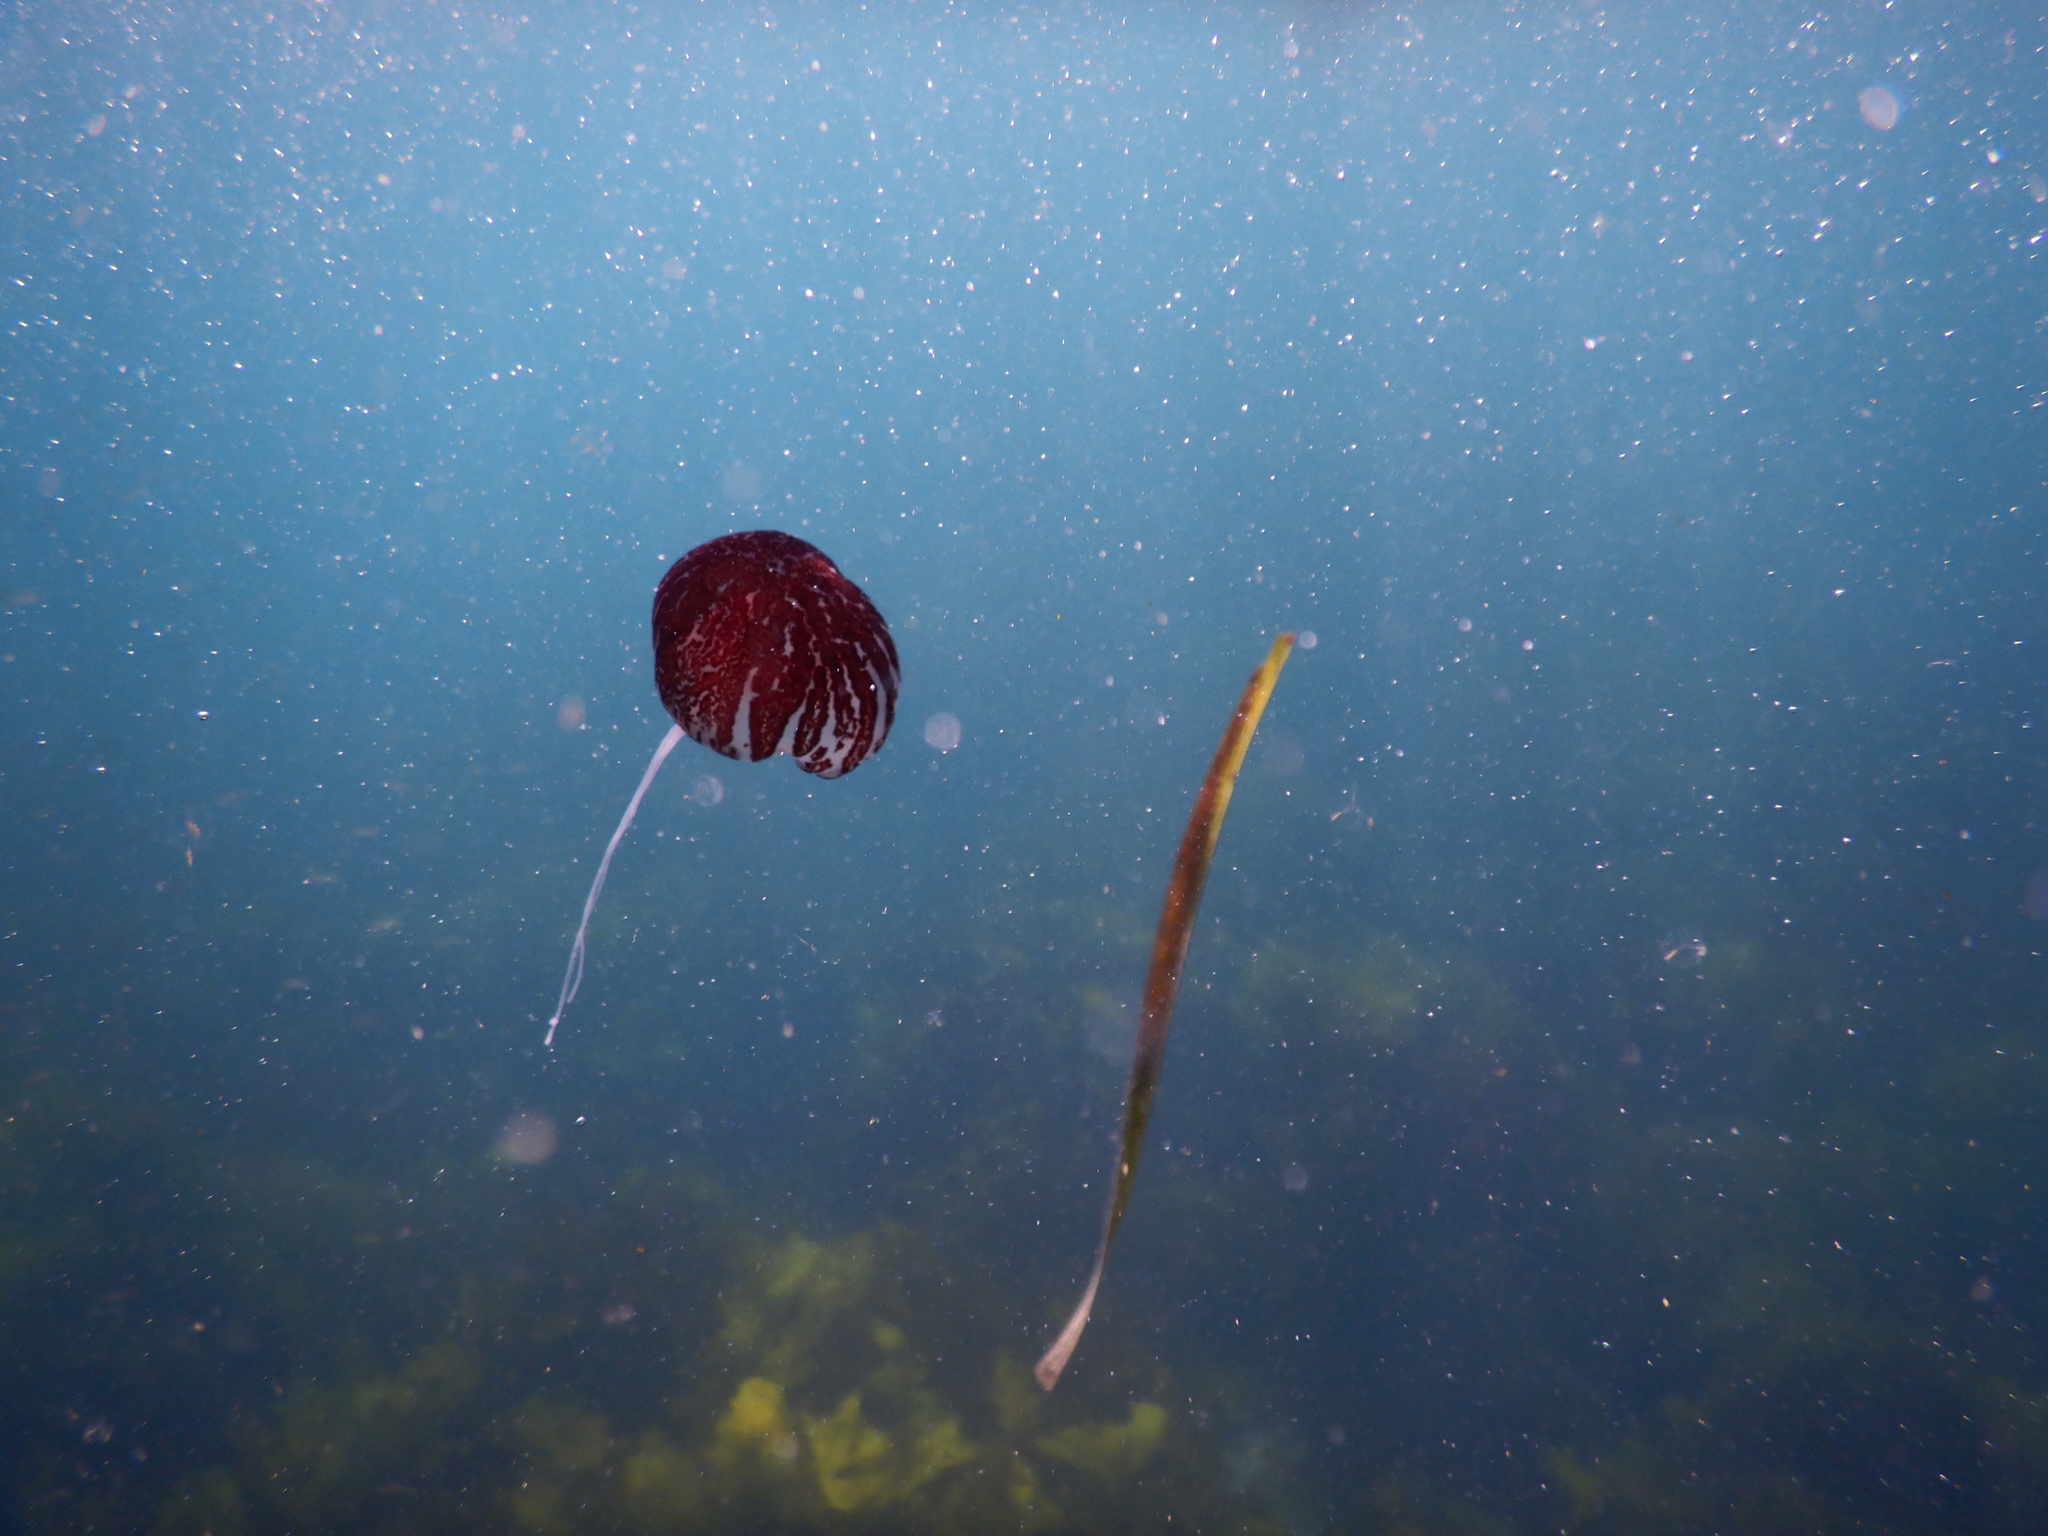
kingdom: Animalia
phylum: Cnidaria
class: Scyphozoa
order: Semaeostomeae
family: Pelagiidae
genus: Chrysaora
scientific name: Chrysaora pentastoma
